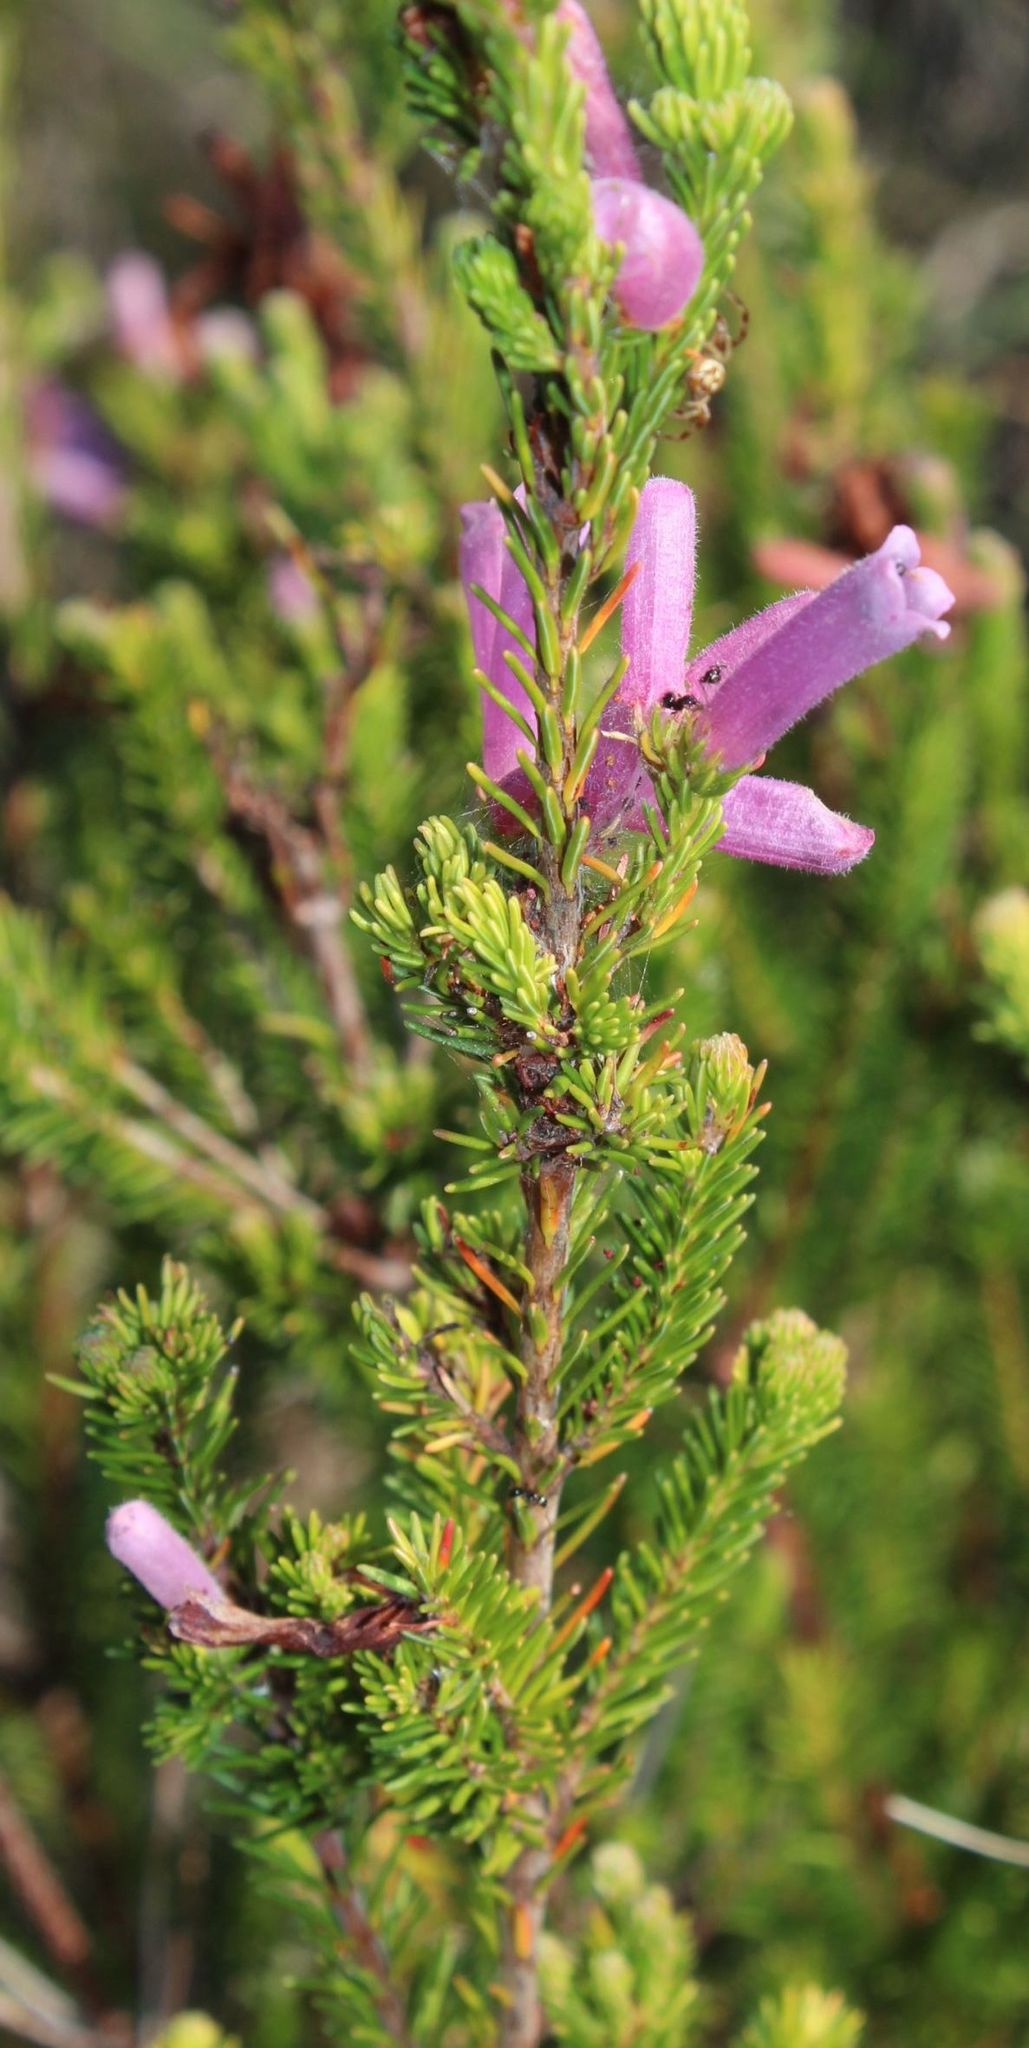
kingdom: Plantae
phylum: Tracheophyta
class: Magnoliopsida
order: Ericales
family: Ericaceae
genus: Erica
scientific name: Erica verticillata
